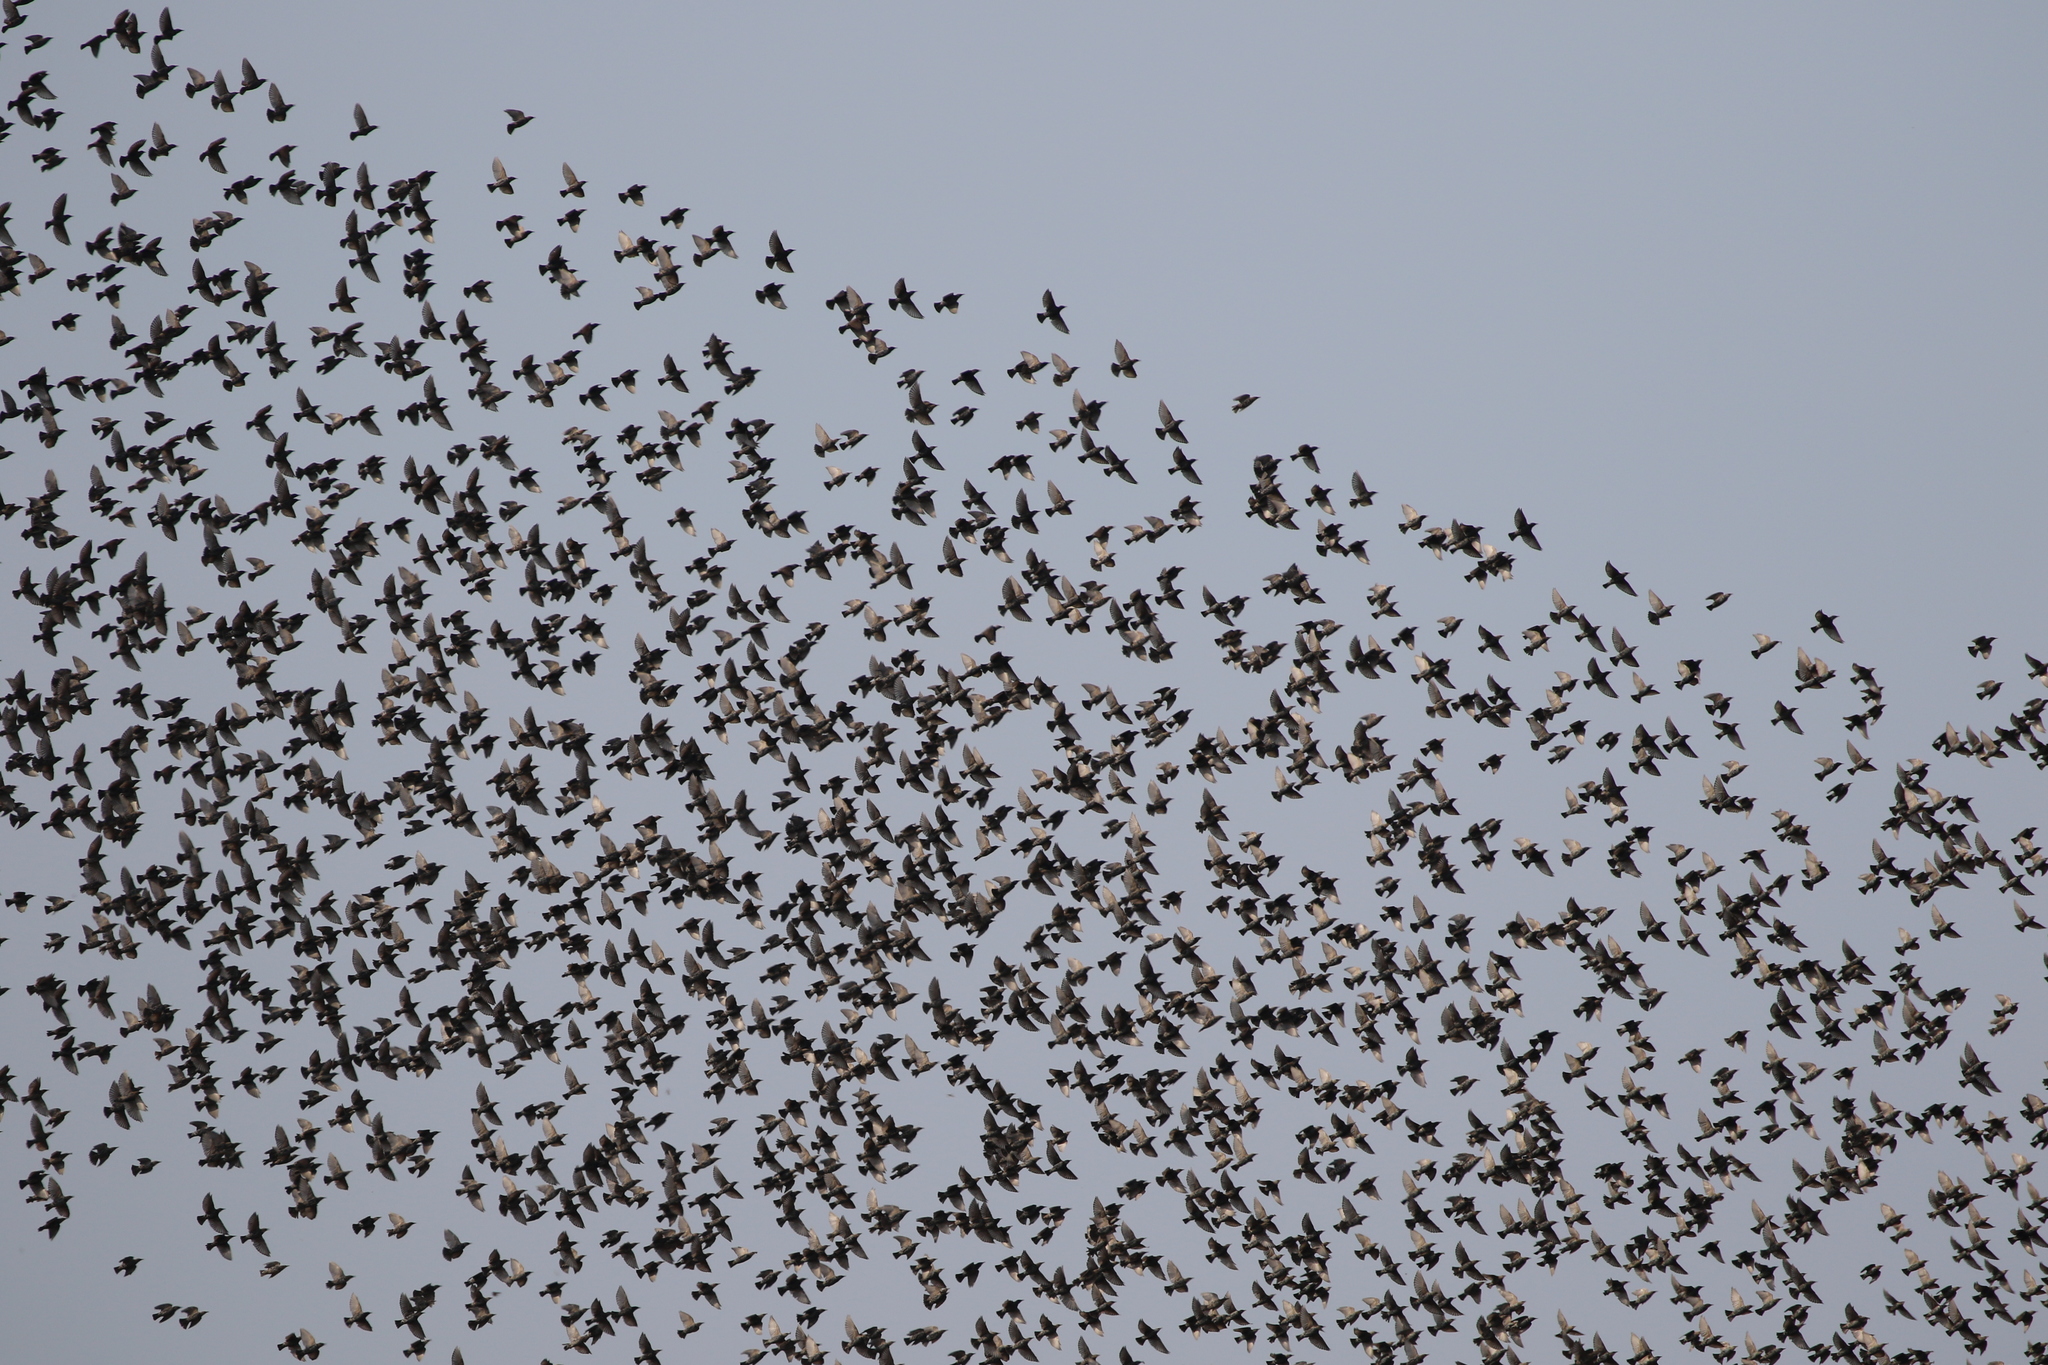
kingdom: Animalia
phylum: Chordata
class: Aves
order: Passeriformes
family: Sturnidae
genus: Sturnus
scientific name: Sturnus vulgaris
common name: Common starling
